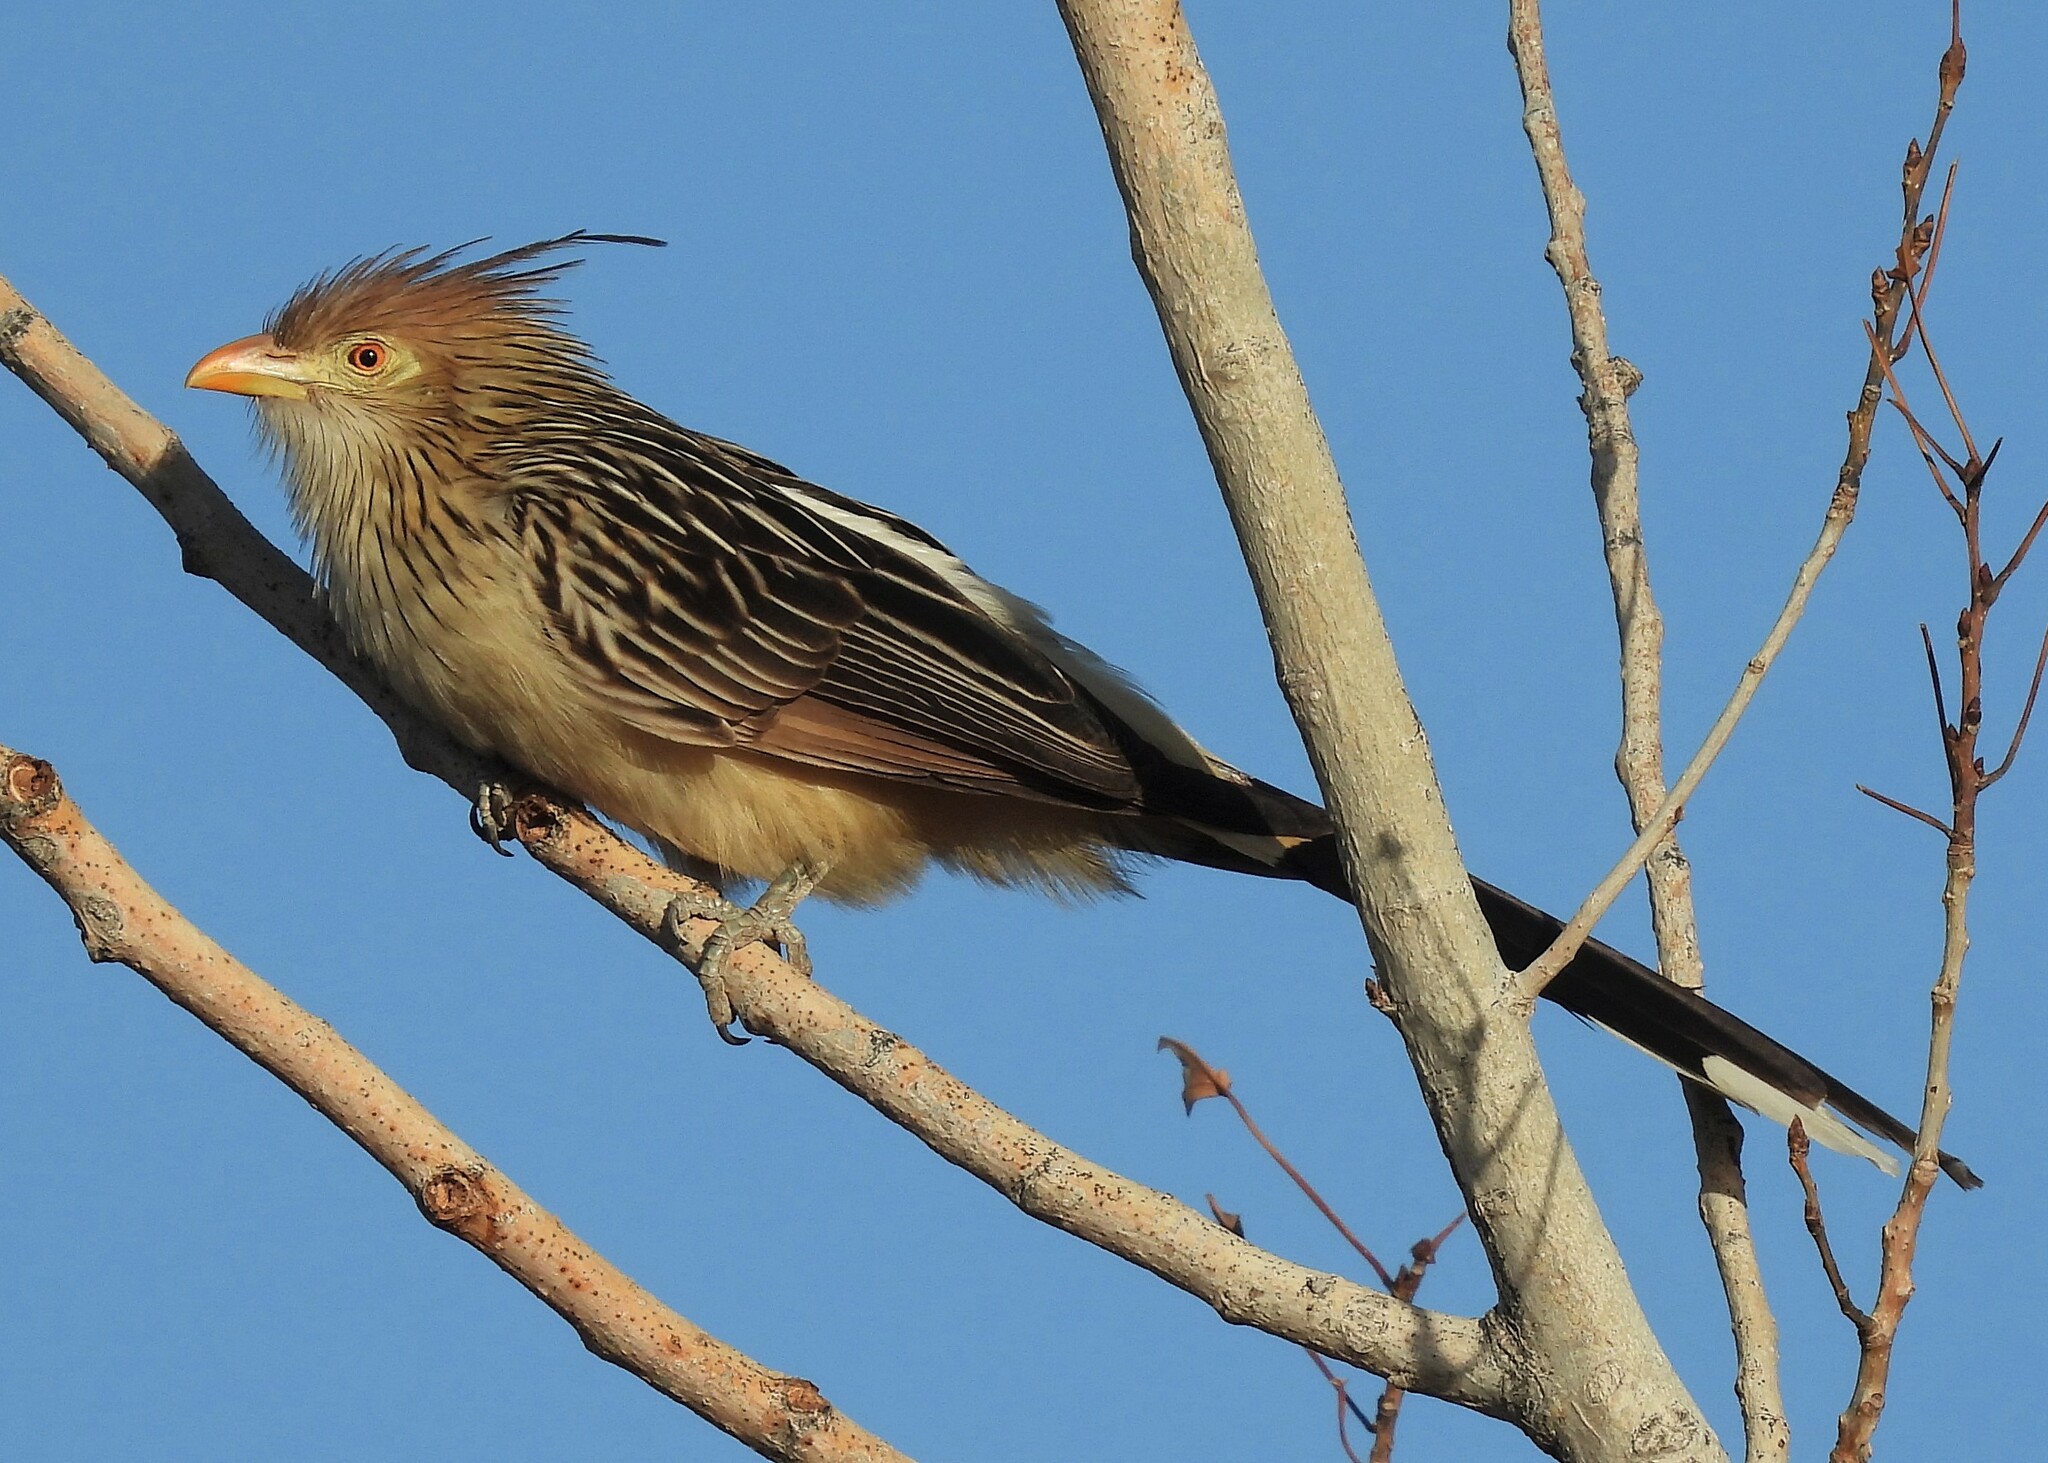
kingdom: Animalia
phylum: Chordata
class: Aves
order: Cuculiformes
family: Cuculidae
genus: Guira
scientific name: Guira guira
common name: Guira cuckoo
